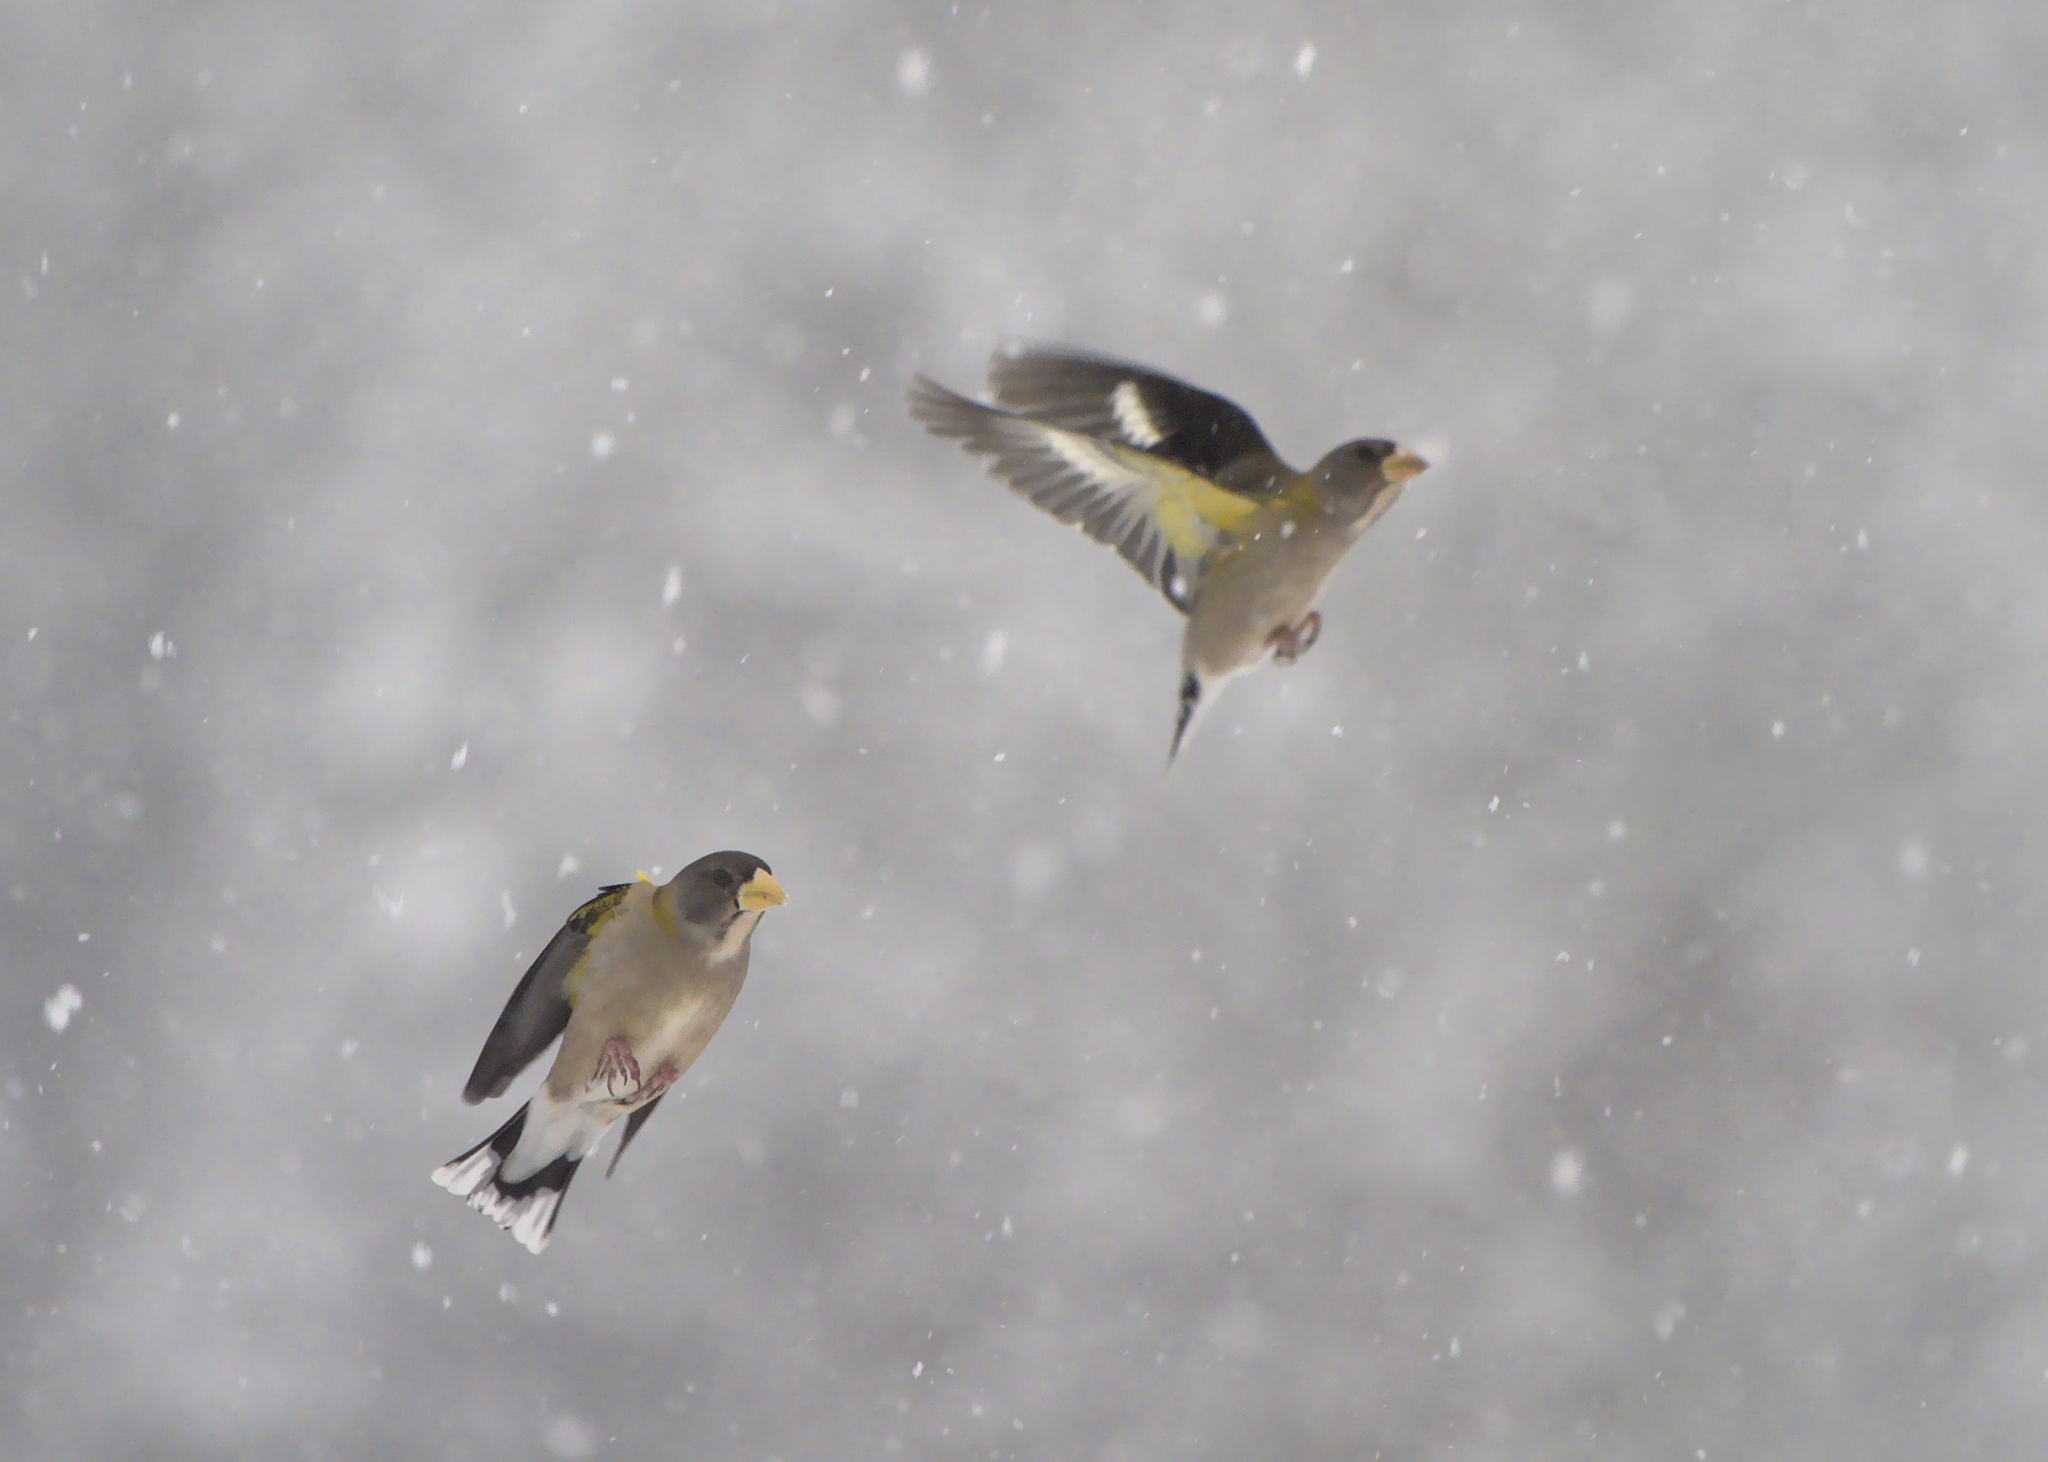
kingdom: Animalia
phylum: Chordata
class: Aves
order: Passeriformes
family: Fringillidae
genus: Hesperiphona
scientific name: Hesperiphona vespertina
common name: Evening grosbeak
